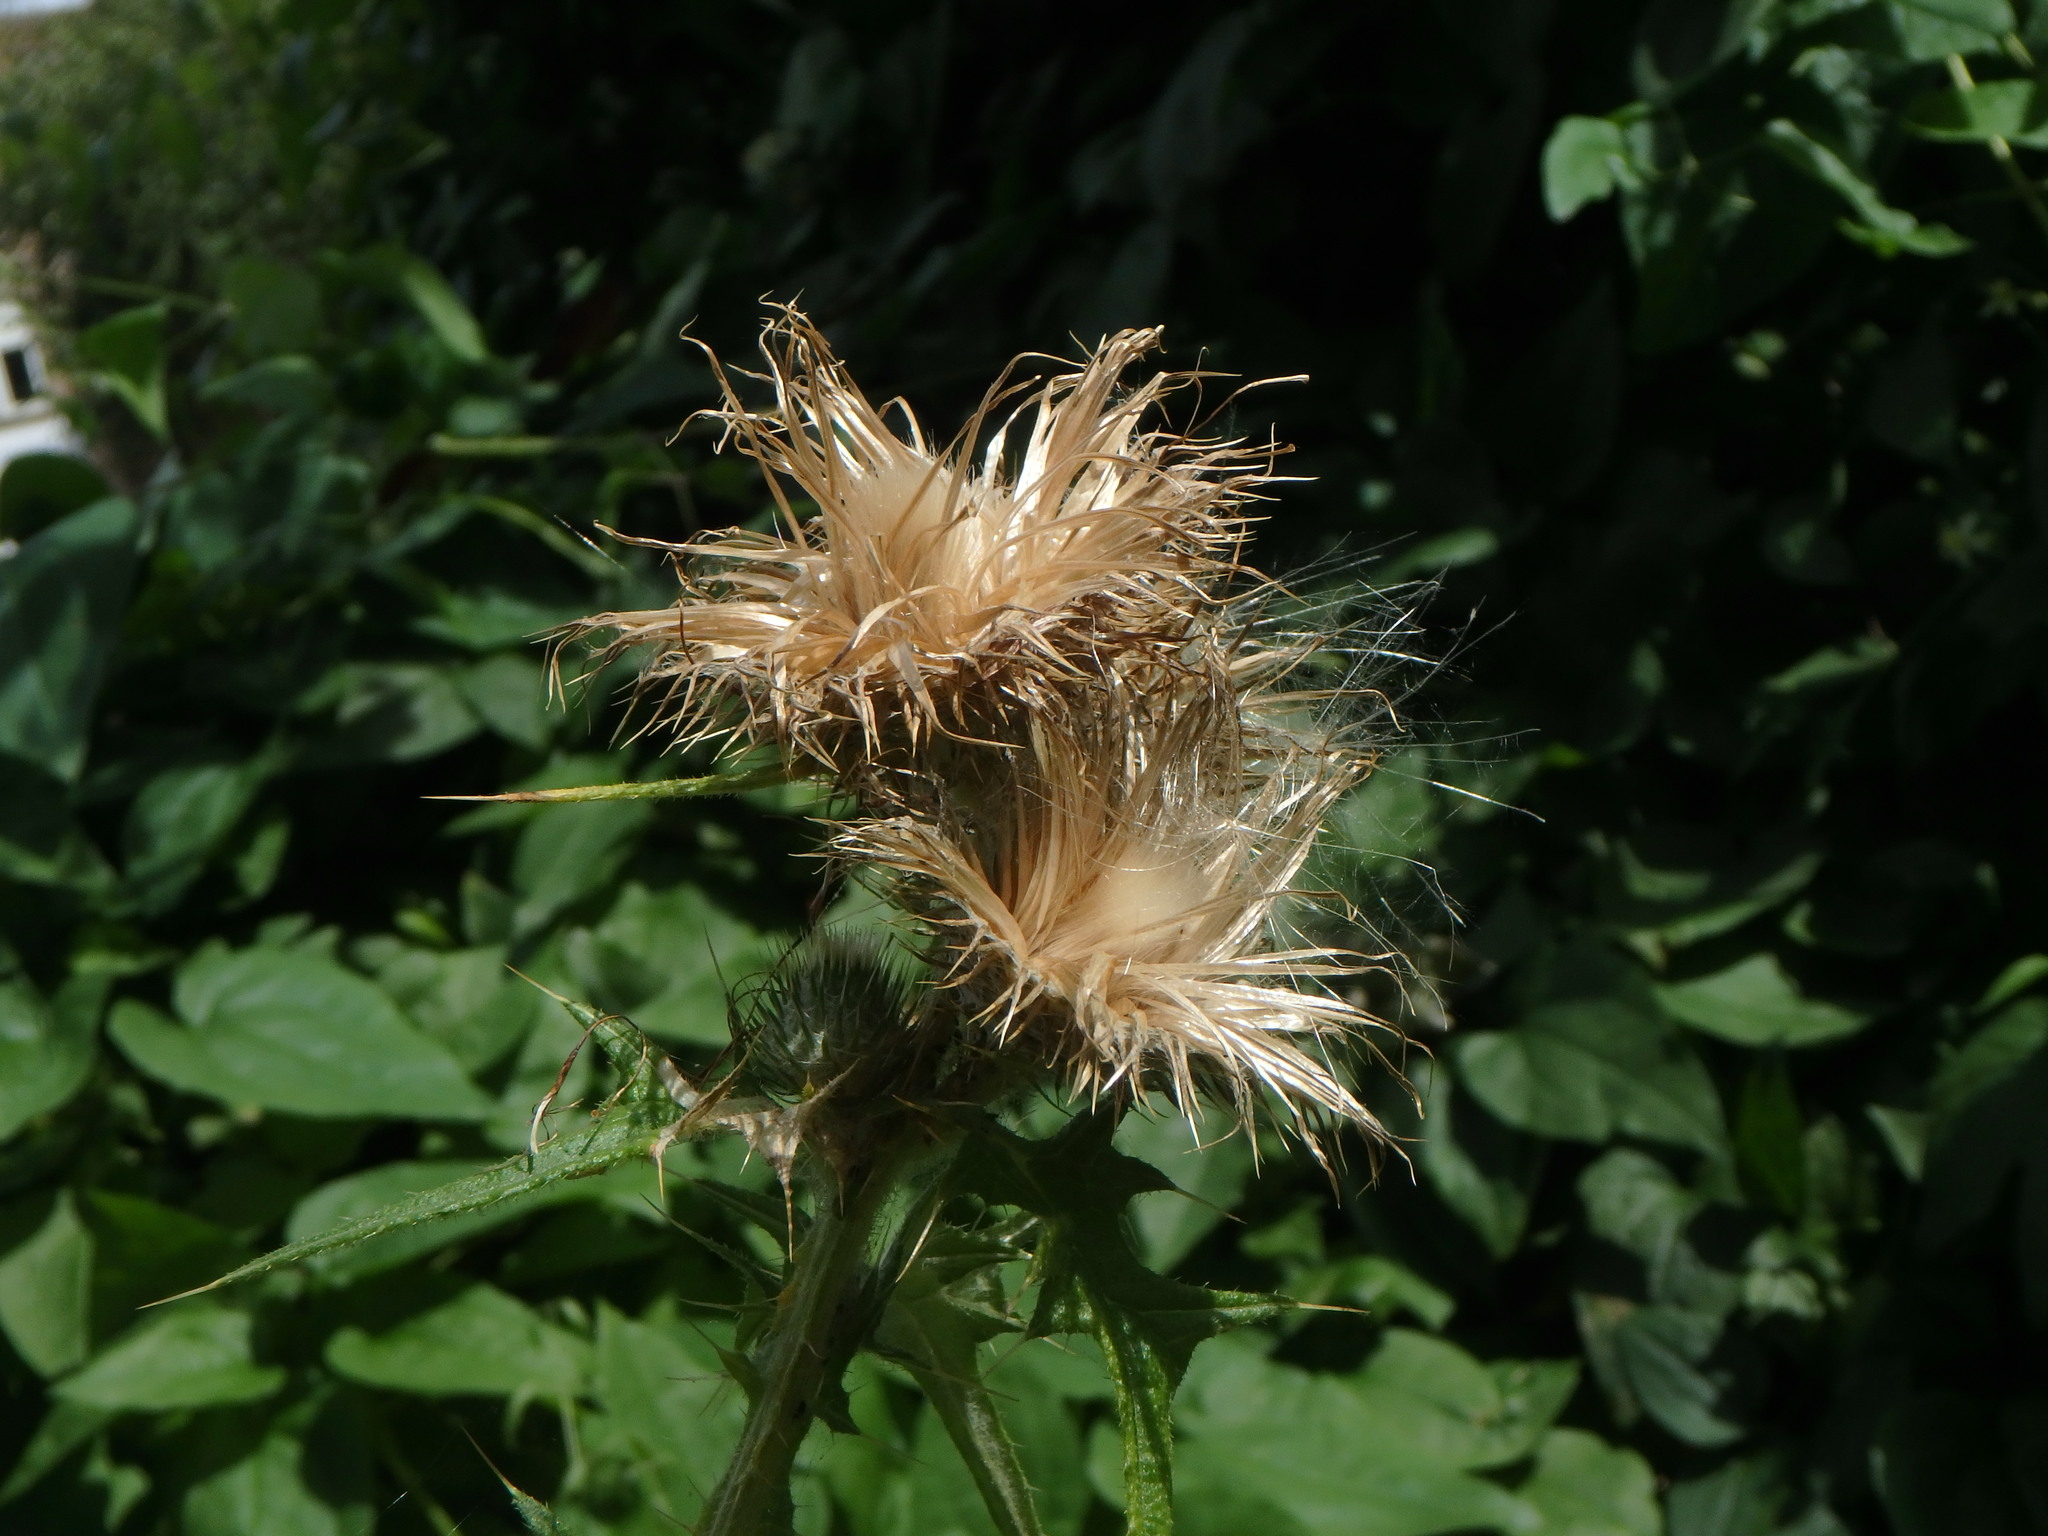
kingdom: Plantae
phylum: Tracheophyta
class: Magnoliopsida
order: Asterales
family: Asteraceae
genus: Cirsium
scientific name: Cirsium vulgare
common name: Bull thistle
